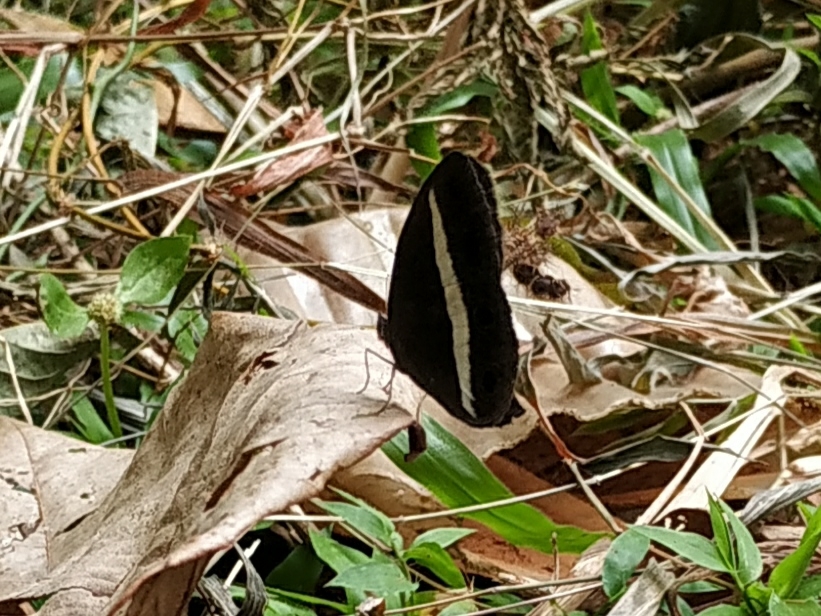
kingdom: Animalia
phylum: Arthropoda
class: Insecta
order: Lepidoptera
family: Nymphalidae
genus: Orsotriaena
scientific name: Orsotriaena medus
